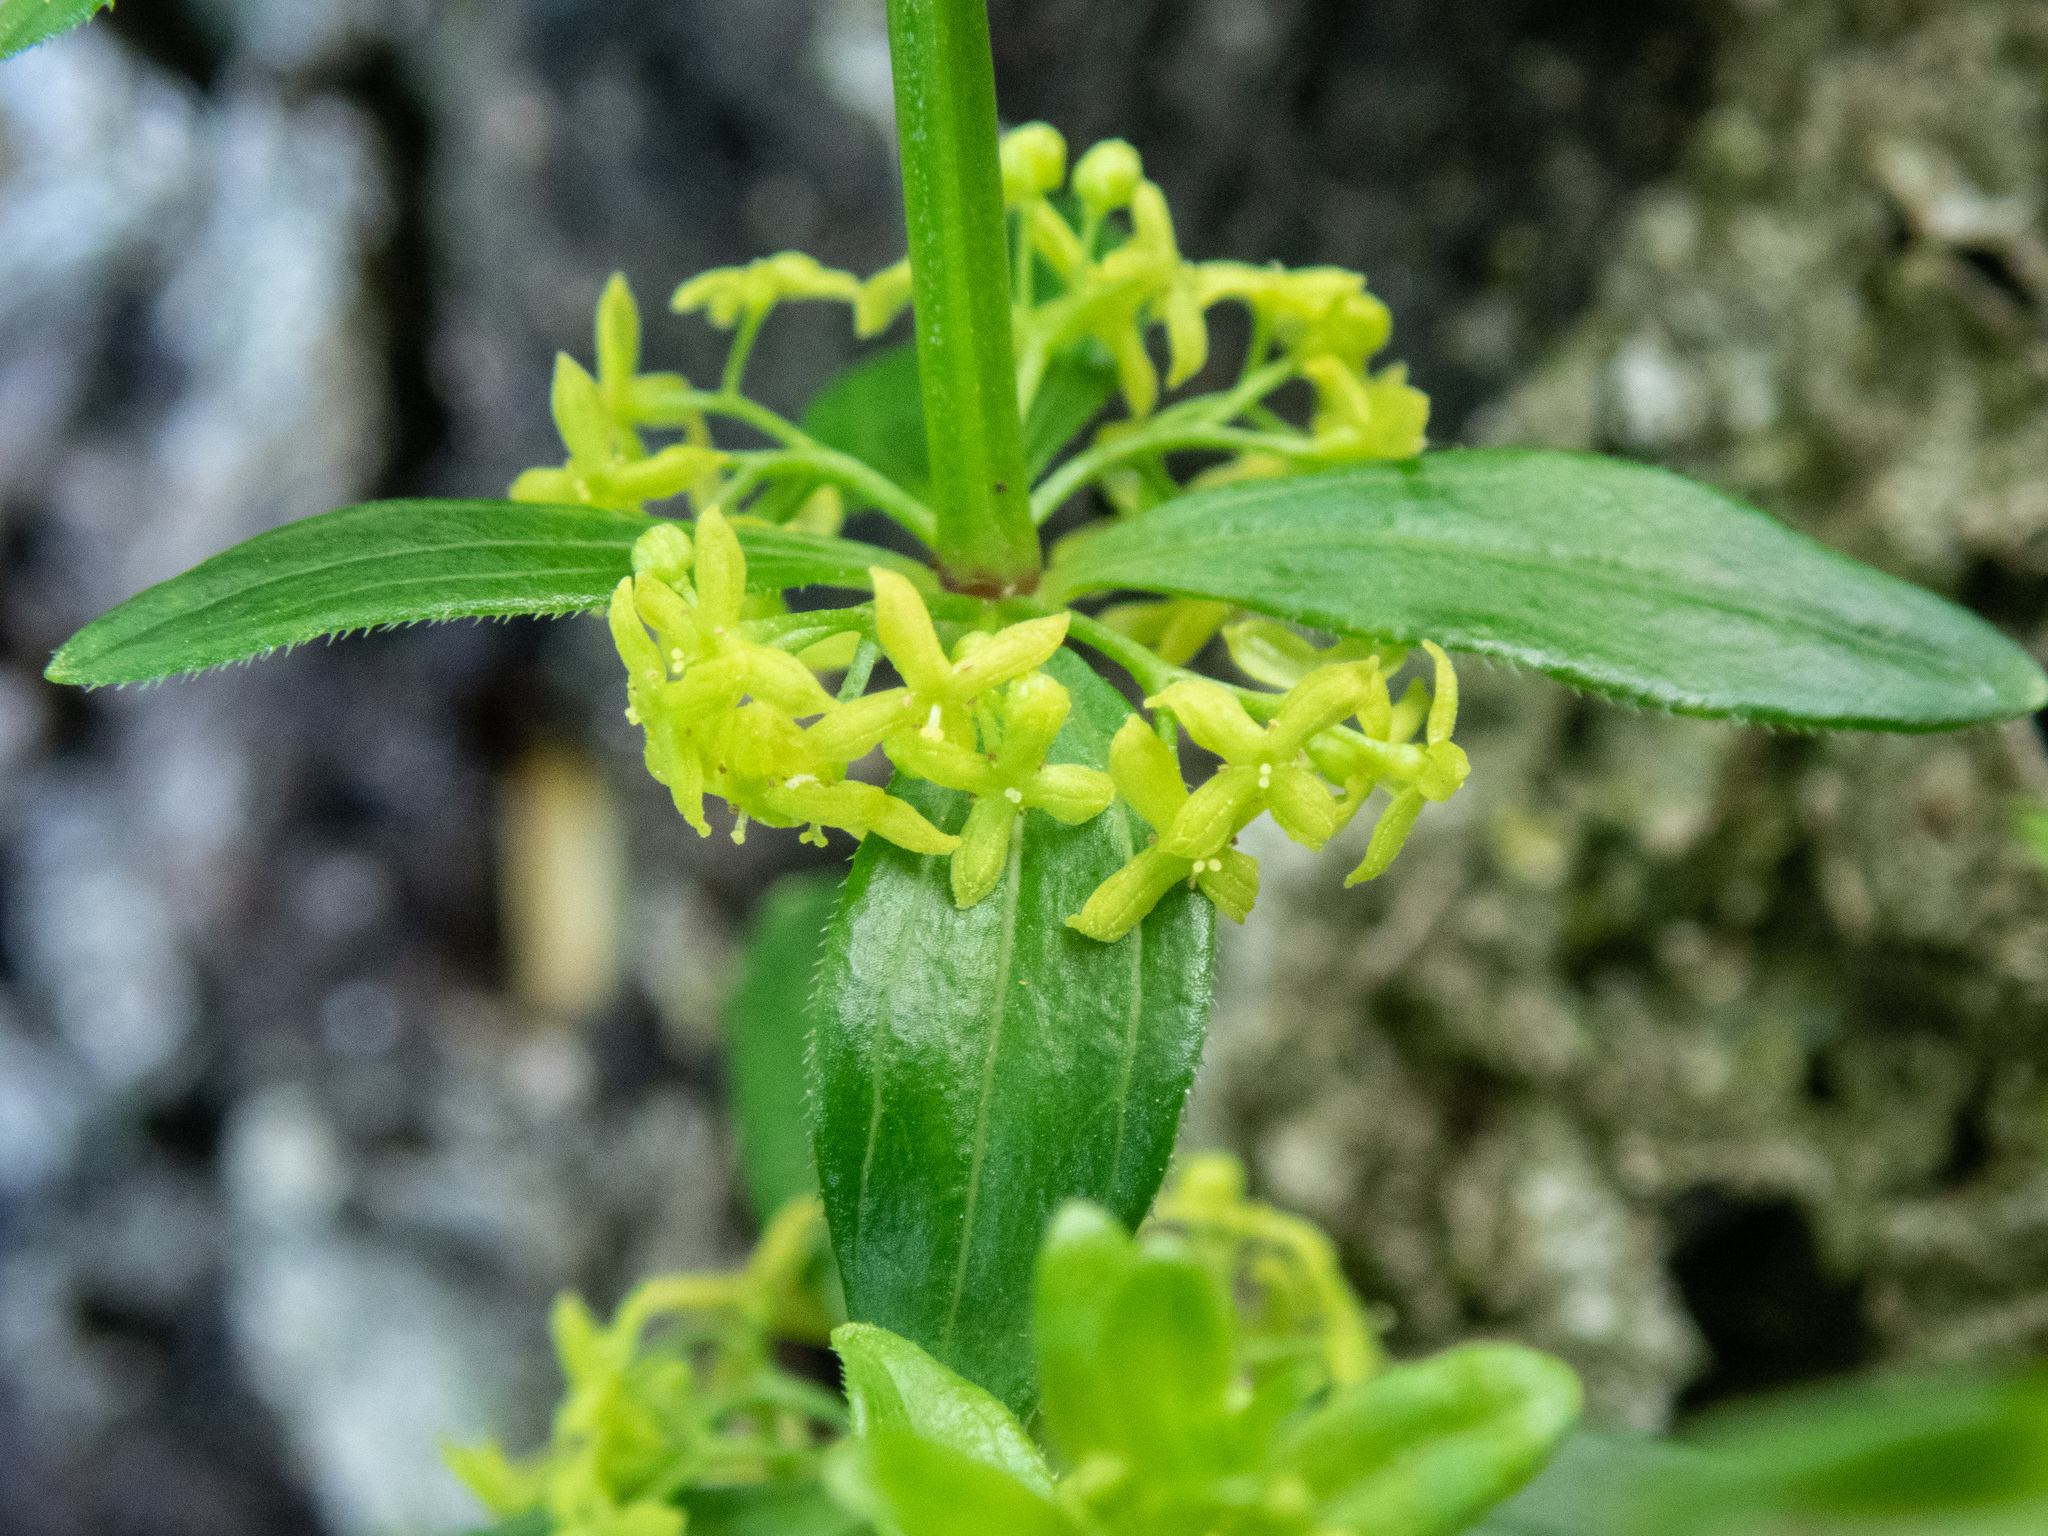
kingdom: Plantae
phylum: Tracheophyta
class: Magnoliopsida
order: Gentianales
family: Rubiaceae
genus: Cruciata
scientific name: Cruciata glabra
